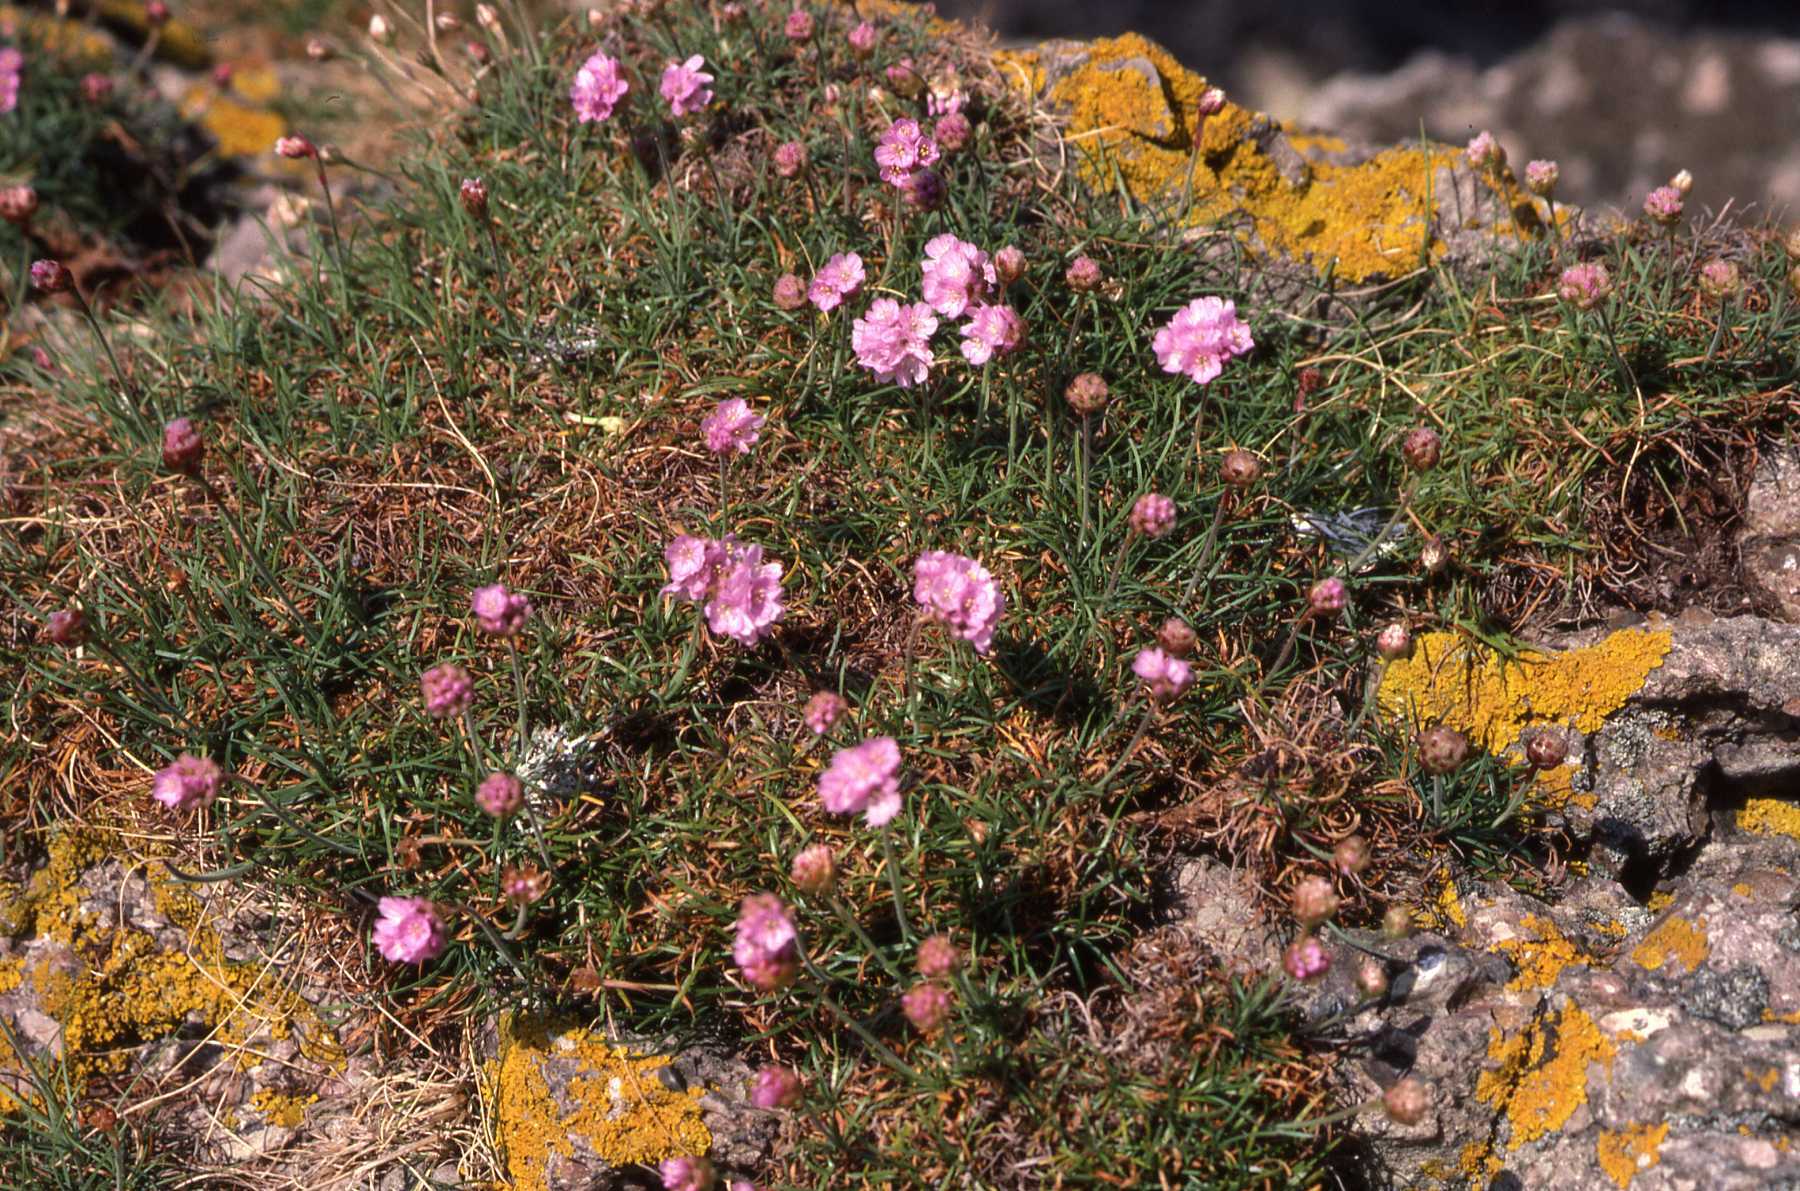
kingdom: Plantae
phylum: Tracheophyta
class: Magnoliopsida
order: Caryophyllales
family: Plumbaginaceae
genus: Armeria
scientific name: Armeria maritima
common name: Thrift
